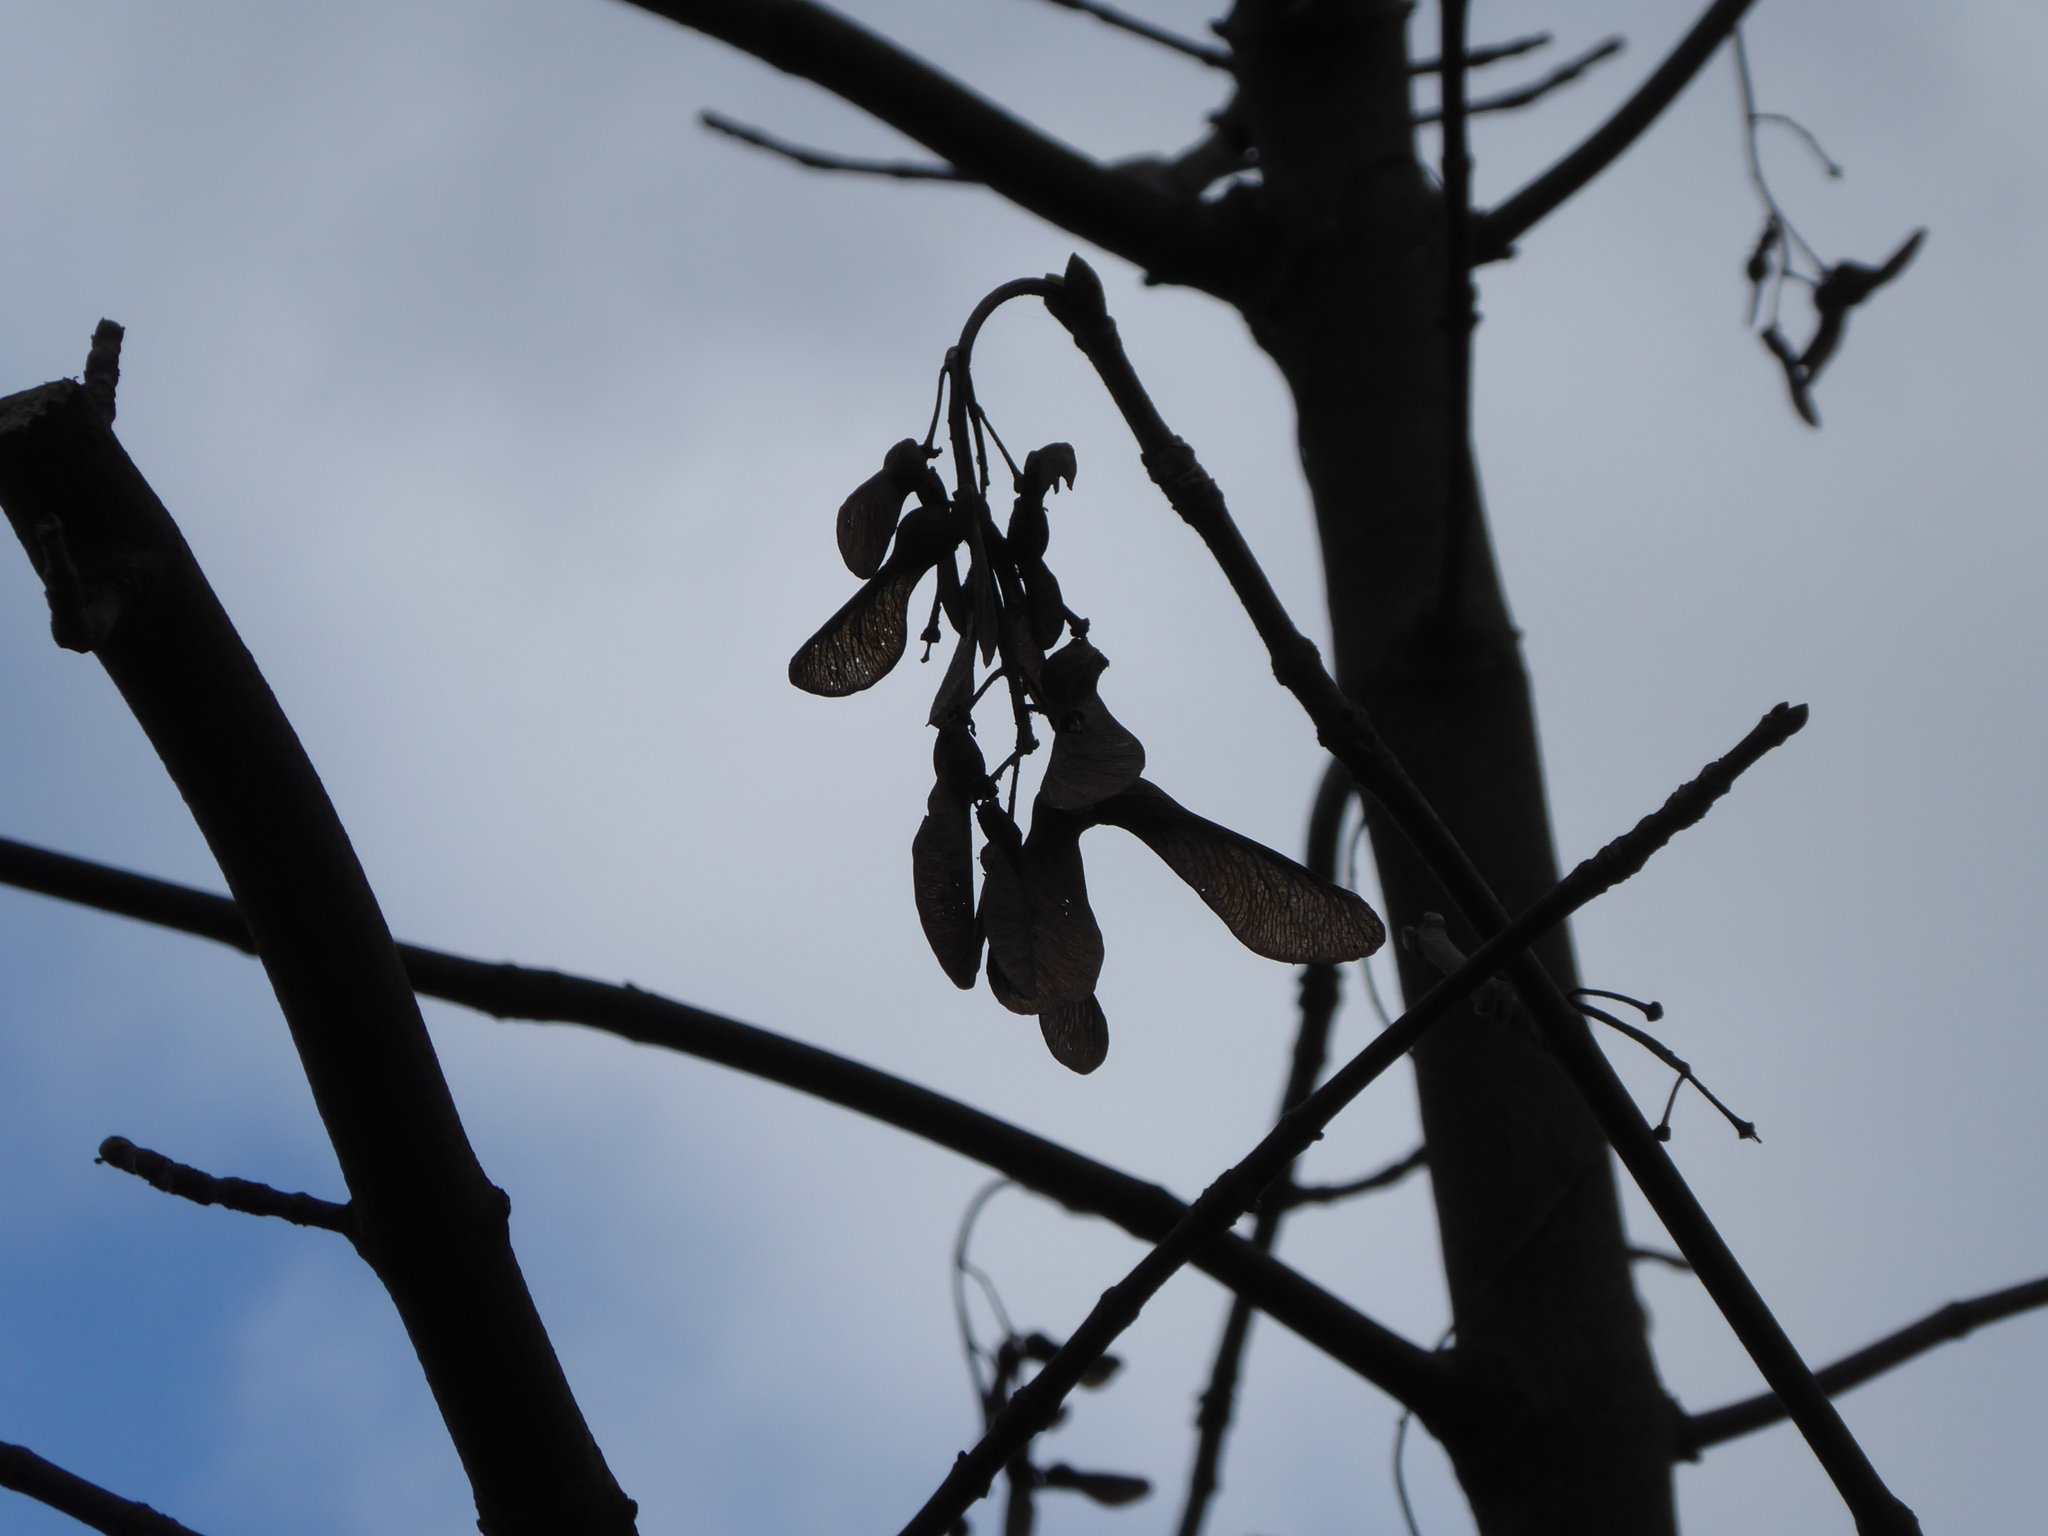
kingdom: Plantae
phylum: Tracheophyta
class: Magnoliopsida
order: Sapindales
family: Sapindaceae
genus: Acer
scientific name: Acer pseudoplatanus
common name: Sycamore
